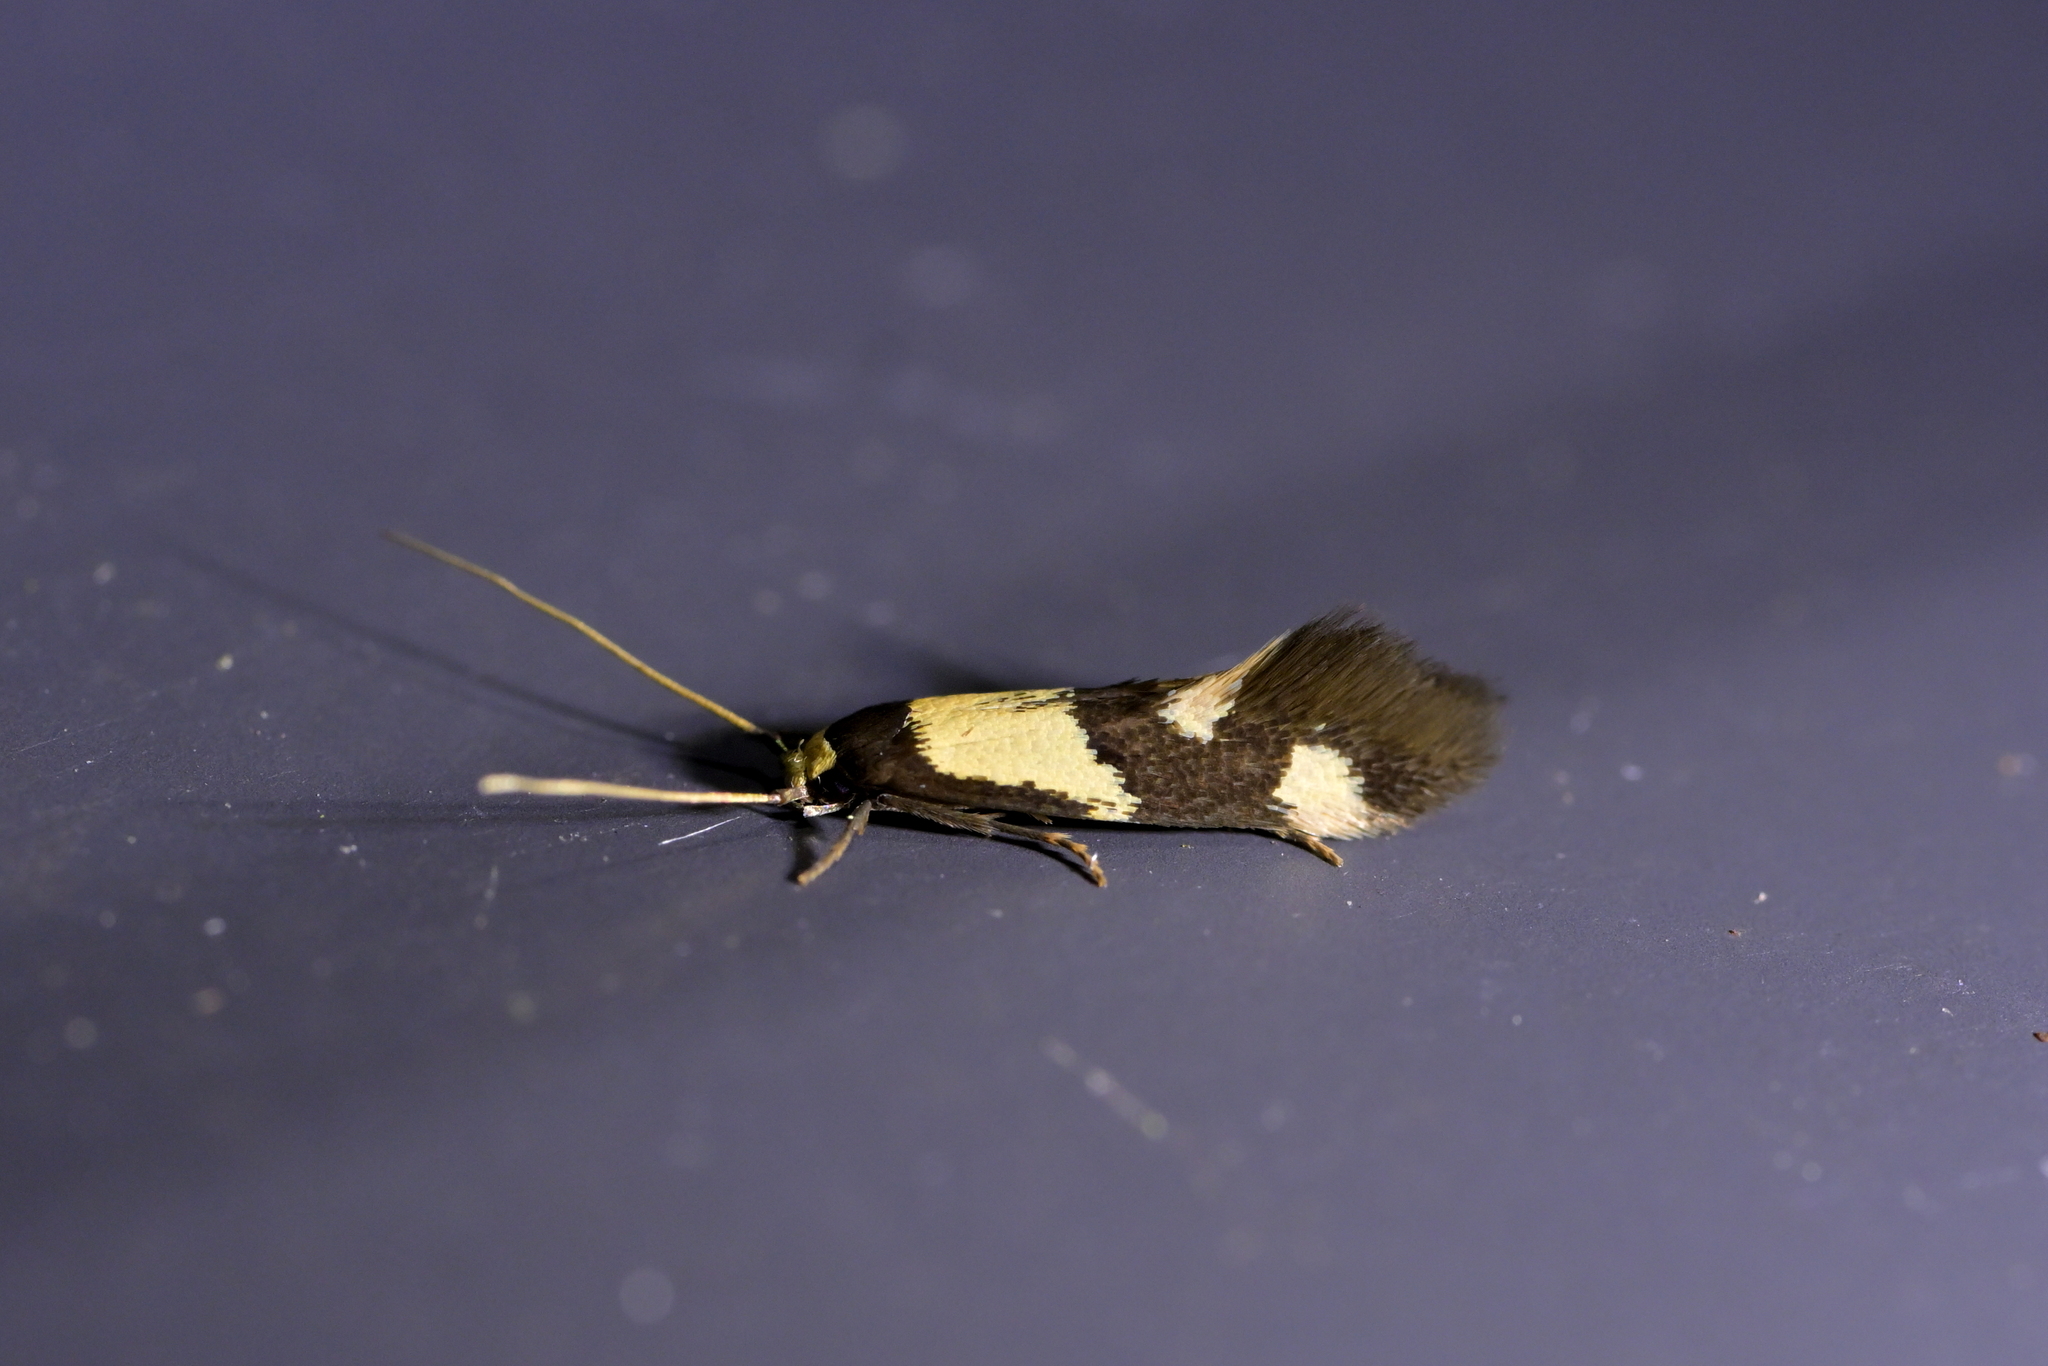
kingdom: Animalia
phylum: Arthropoda
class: Insecta
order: Lepidoptera
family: Tineidae
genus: Opogona
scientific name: Opogona comptella
